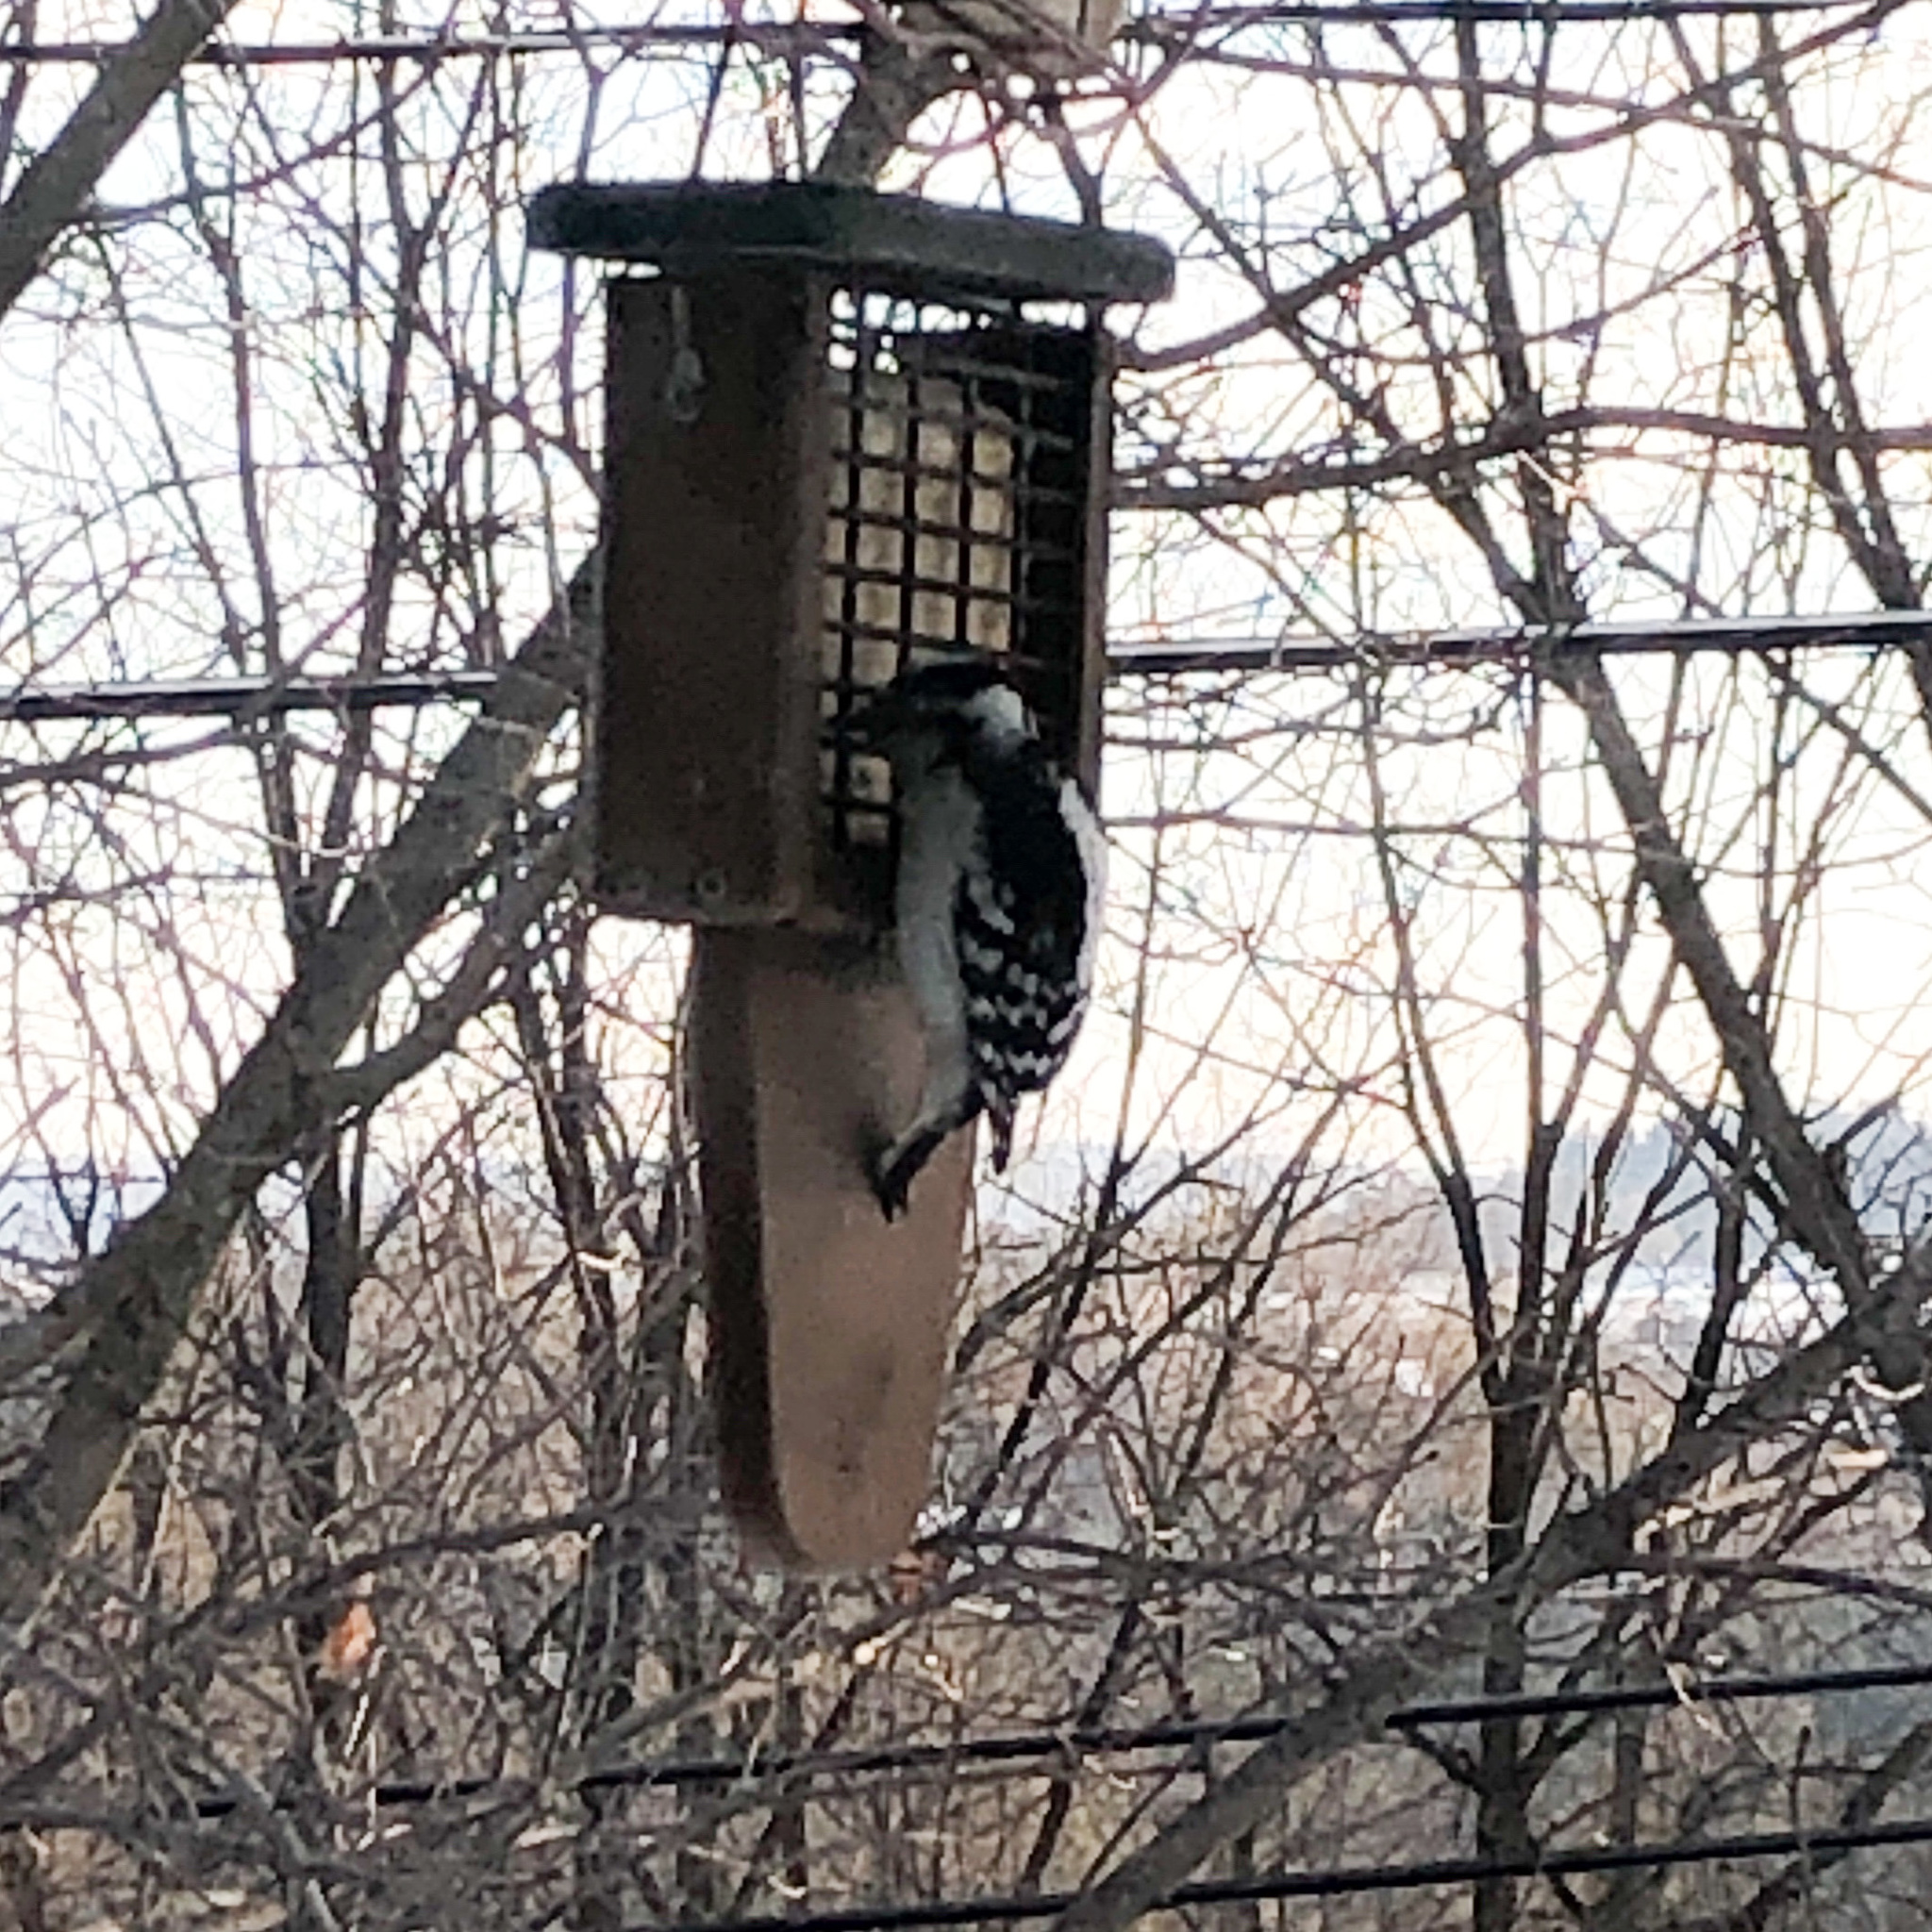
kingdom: Animalia
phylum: Chordata
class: Aves
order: Piciformes
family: Picidae
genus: Dryobates
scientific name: Dryobates pubescens
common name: Downy woodpecker
